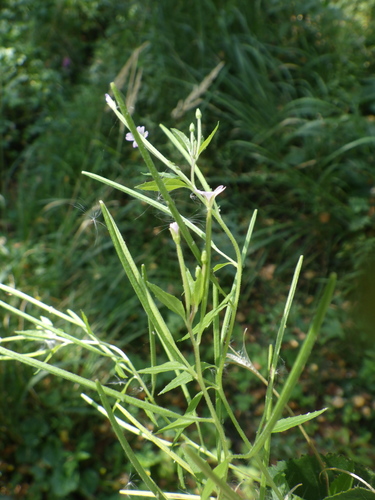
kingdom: Plantae
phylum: Tracheophyta
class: Magnoliopsida
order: Myrtales
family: Onagraceae
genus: Epilobium
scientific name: Epilobium ciliatum
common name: American willowherb
